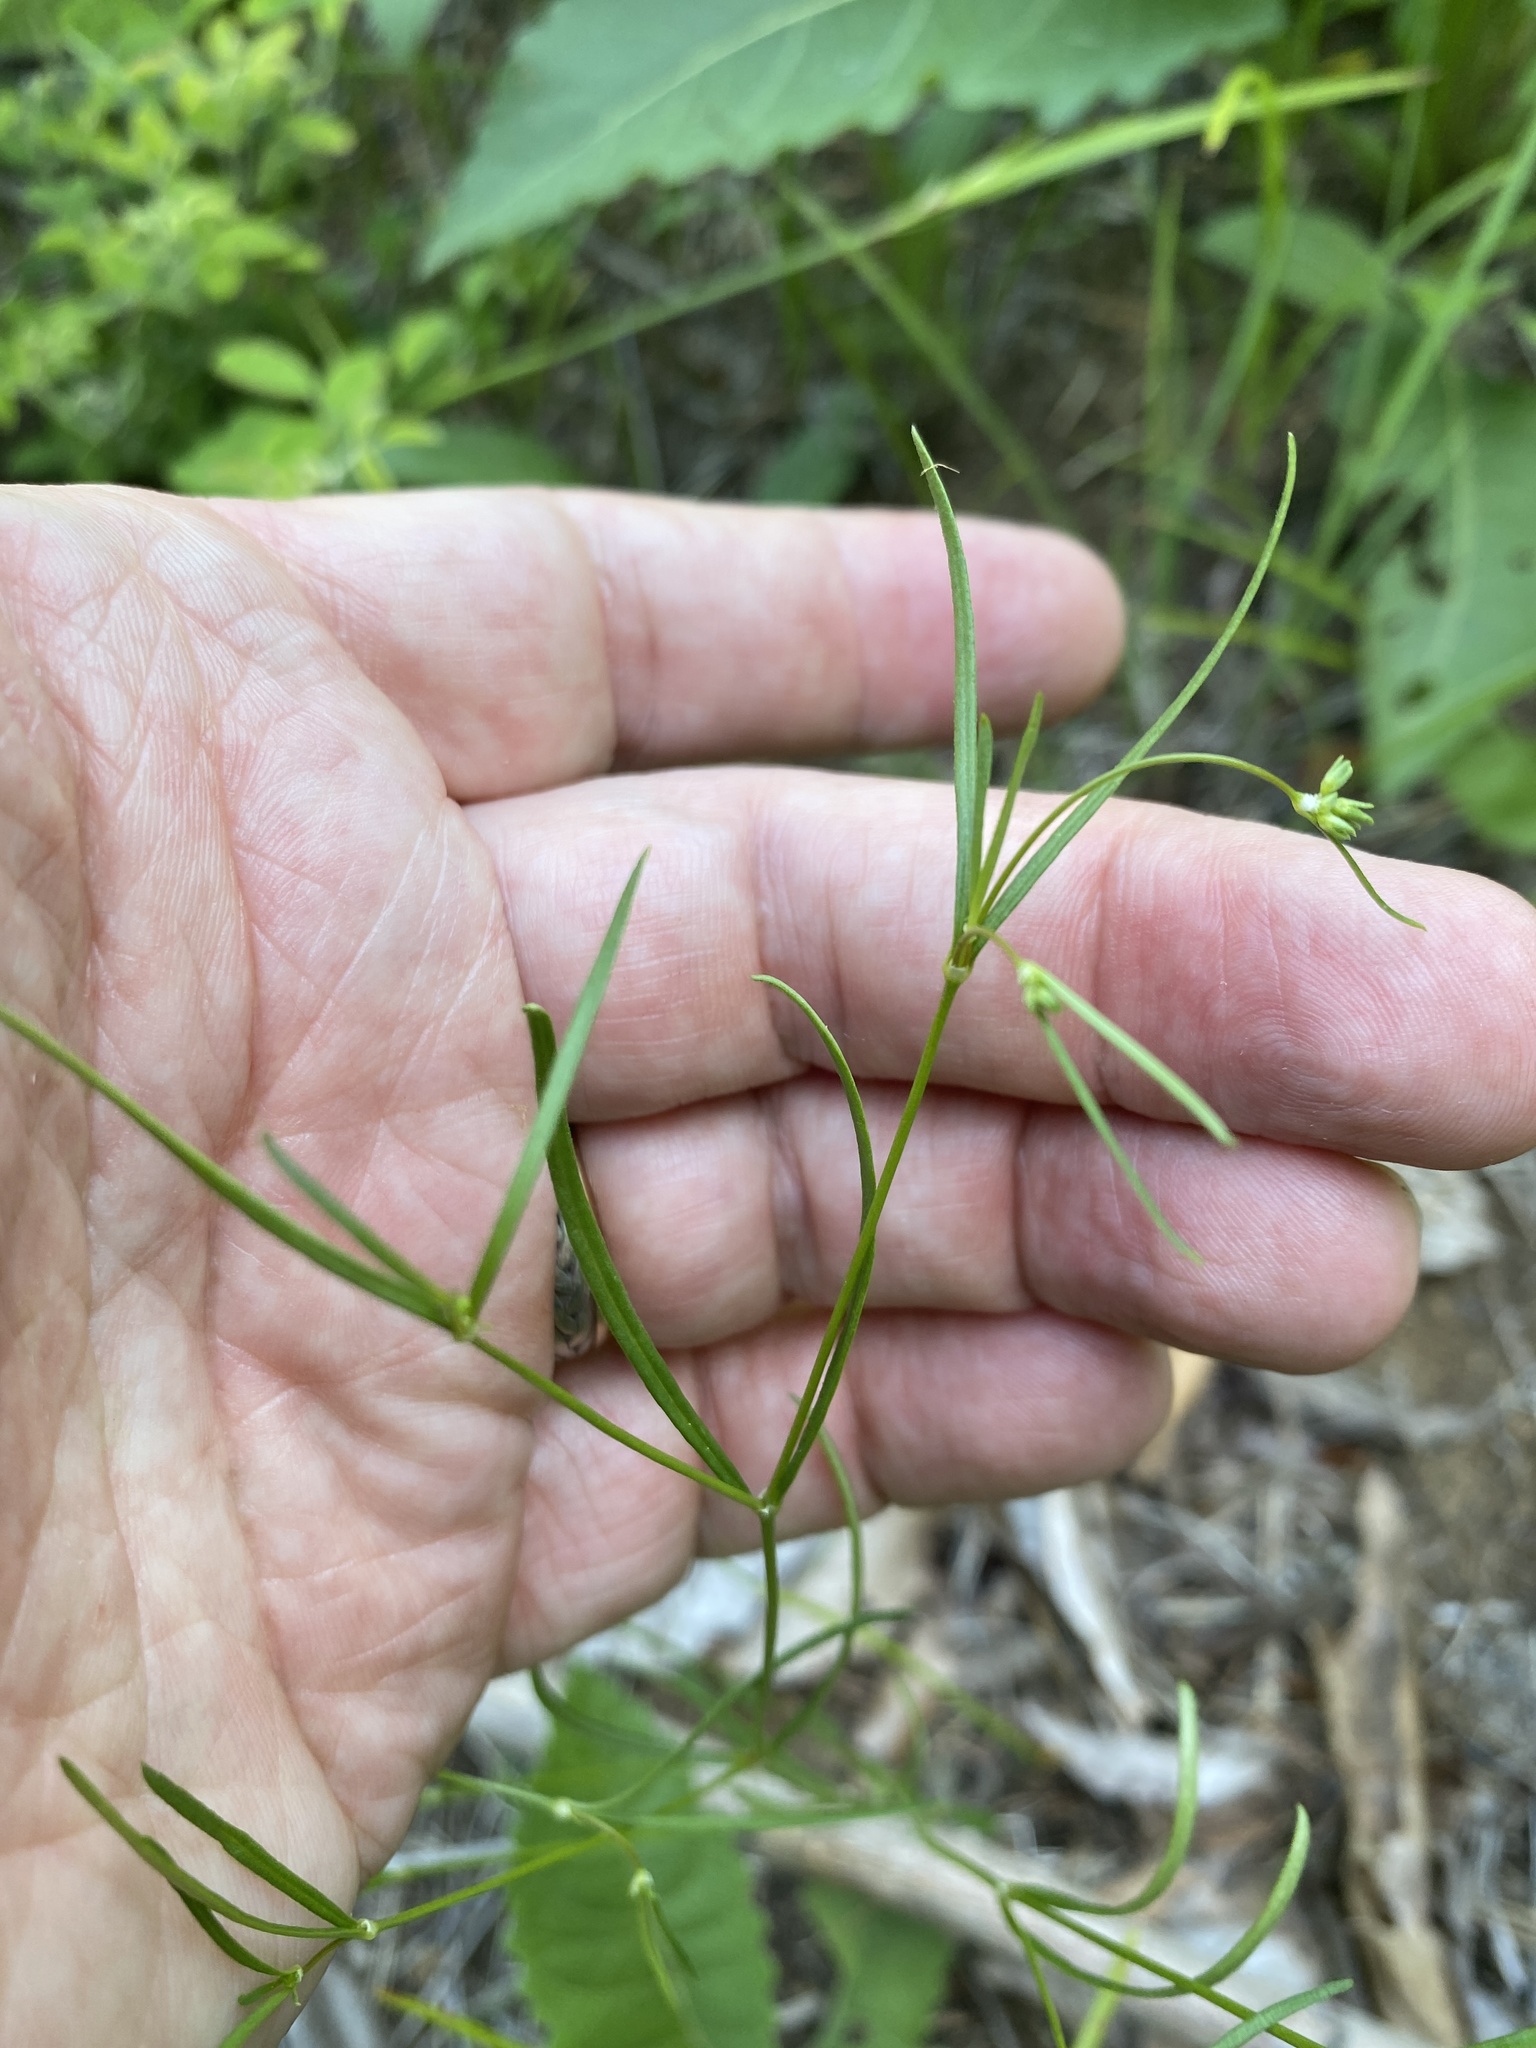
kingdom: Plantae
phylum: Tracheophyta
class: Magnoliopsida
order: Gentianales
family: Rubiaceae
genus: Houstonia
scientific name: Houstonia longifolia
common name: Long-leaved bluets
